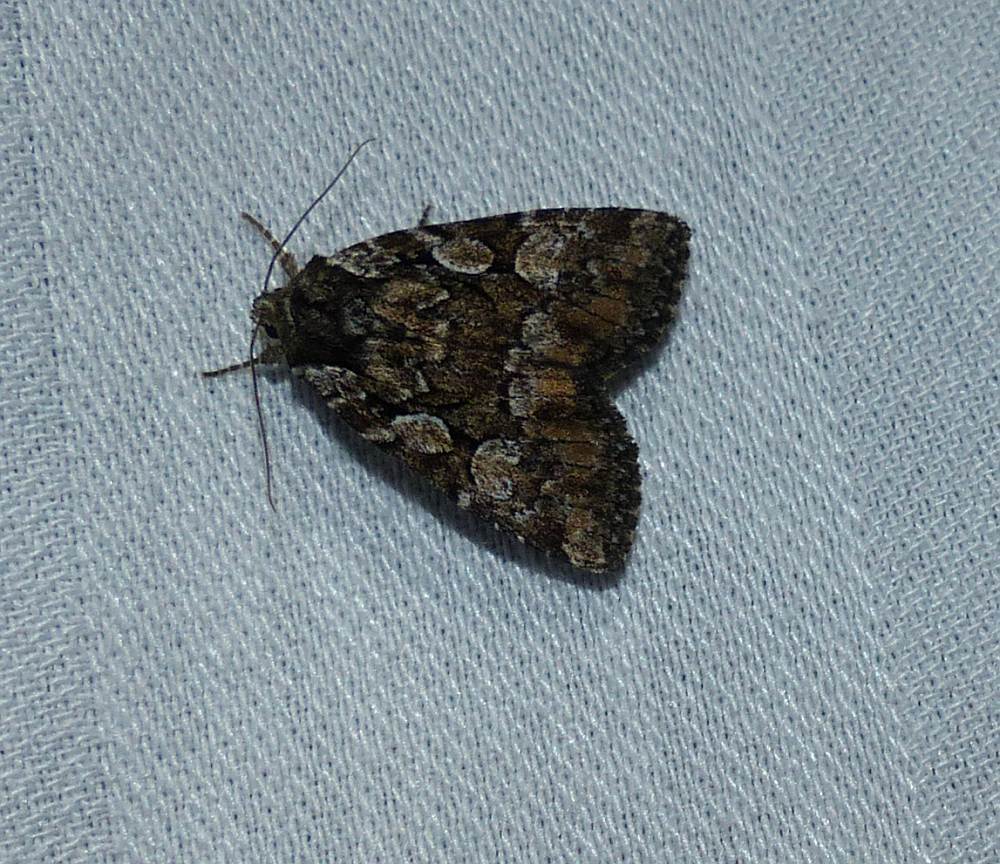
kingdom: Animalia
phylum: Arthropoda
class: Insecta
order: Lepidoptera
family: Noctuidae
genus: Aplectoides
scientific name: Aplectoides condita
